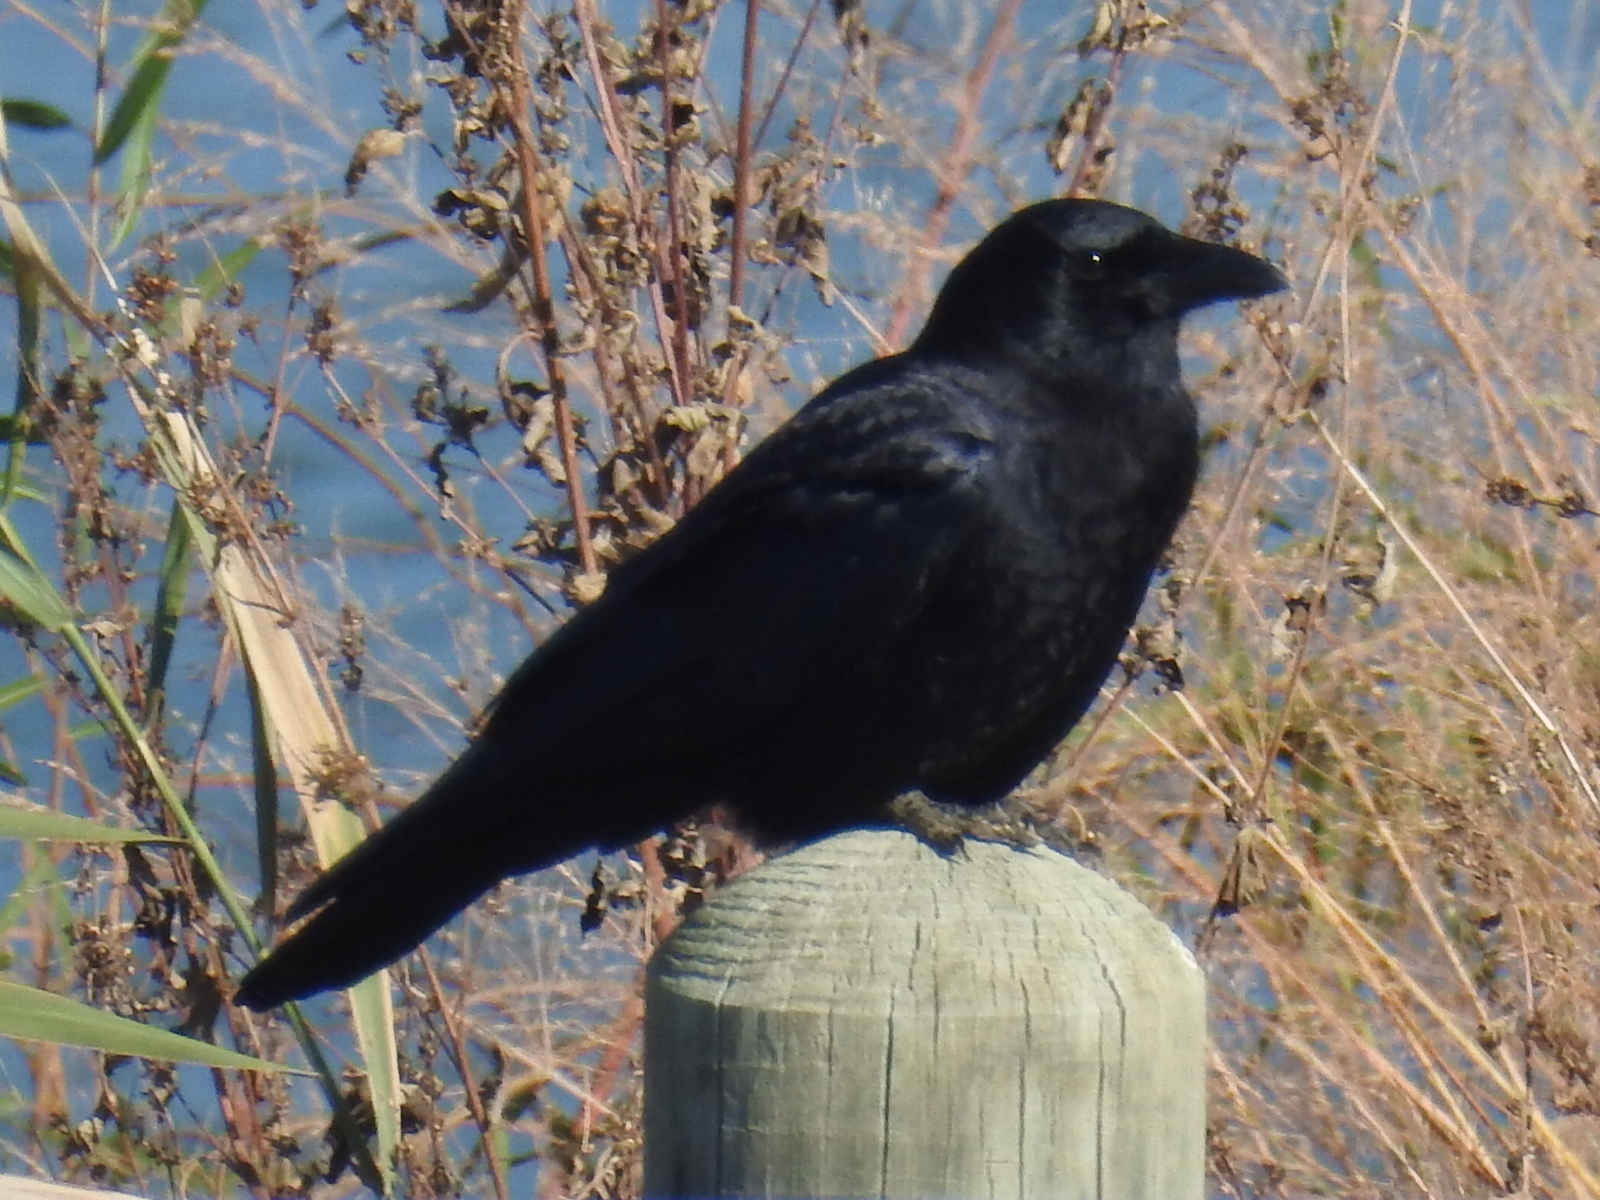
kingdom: Animalia
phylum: Chordata
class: Aves
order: Passeriformes
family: Corvidae
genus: Corvus
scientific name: Corvus brachyrhynchos
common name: American crow
